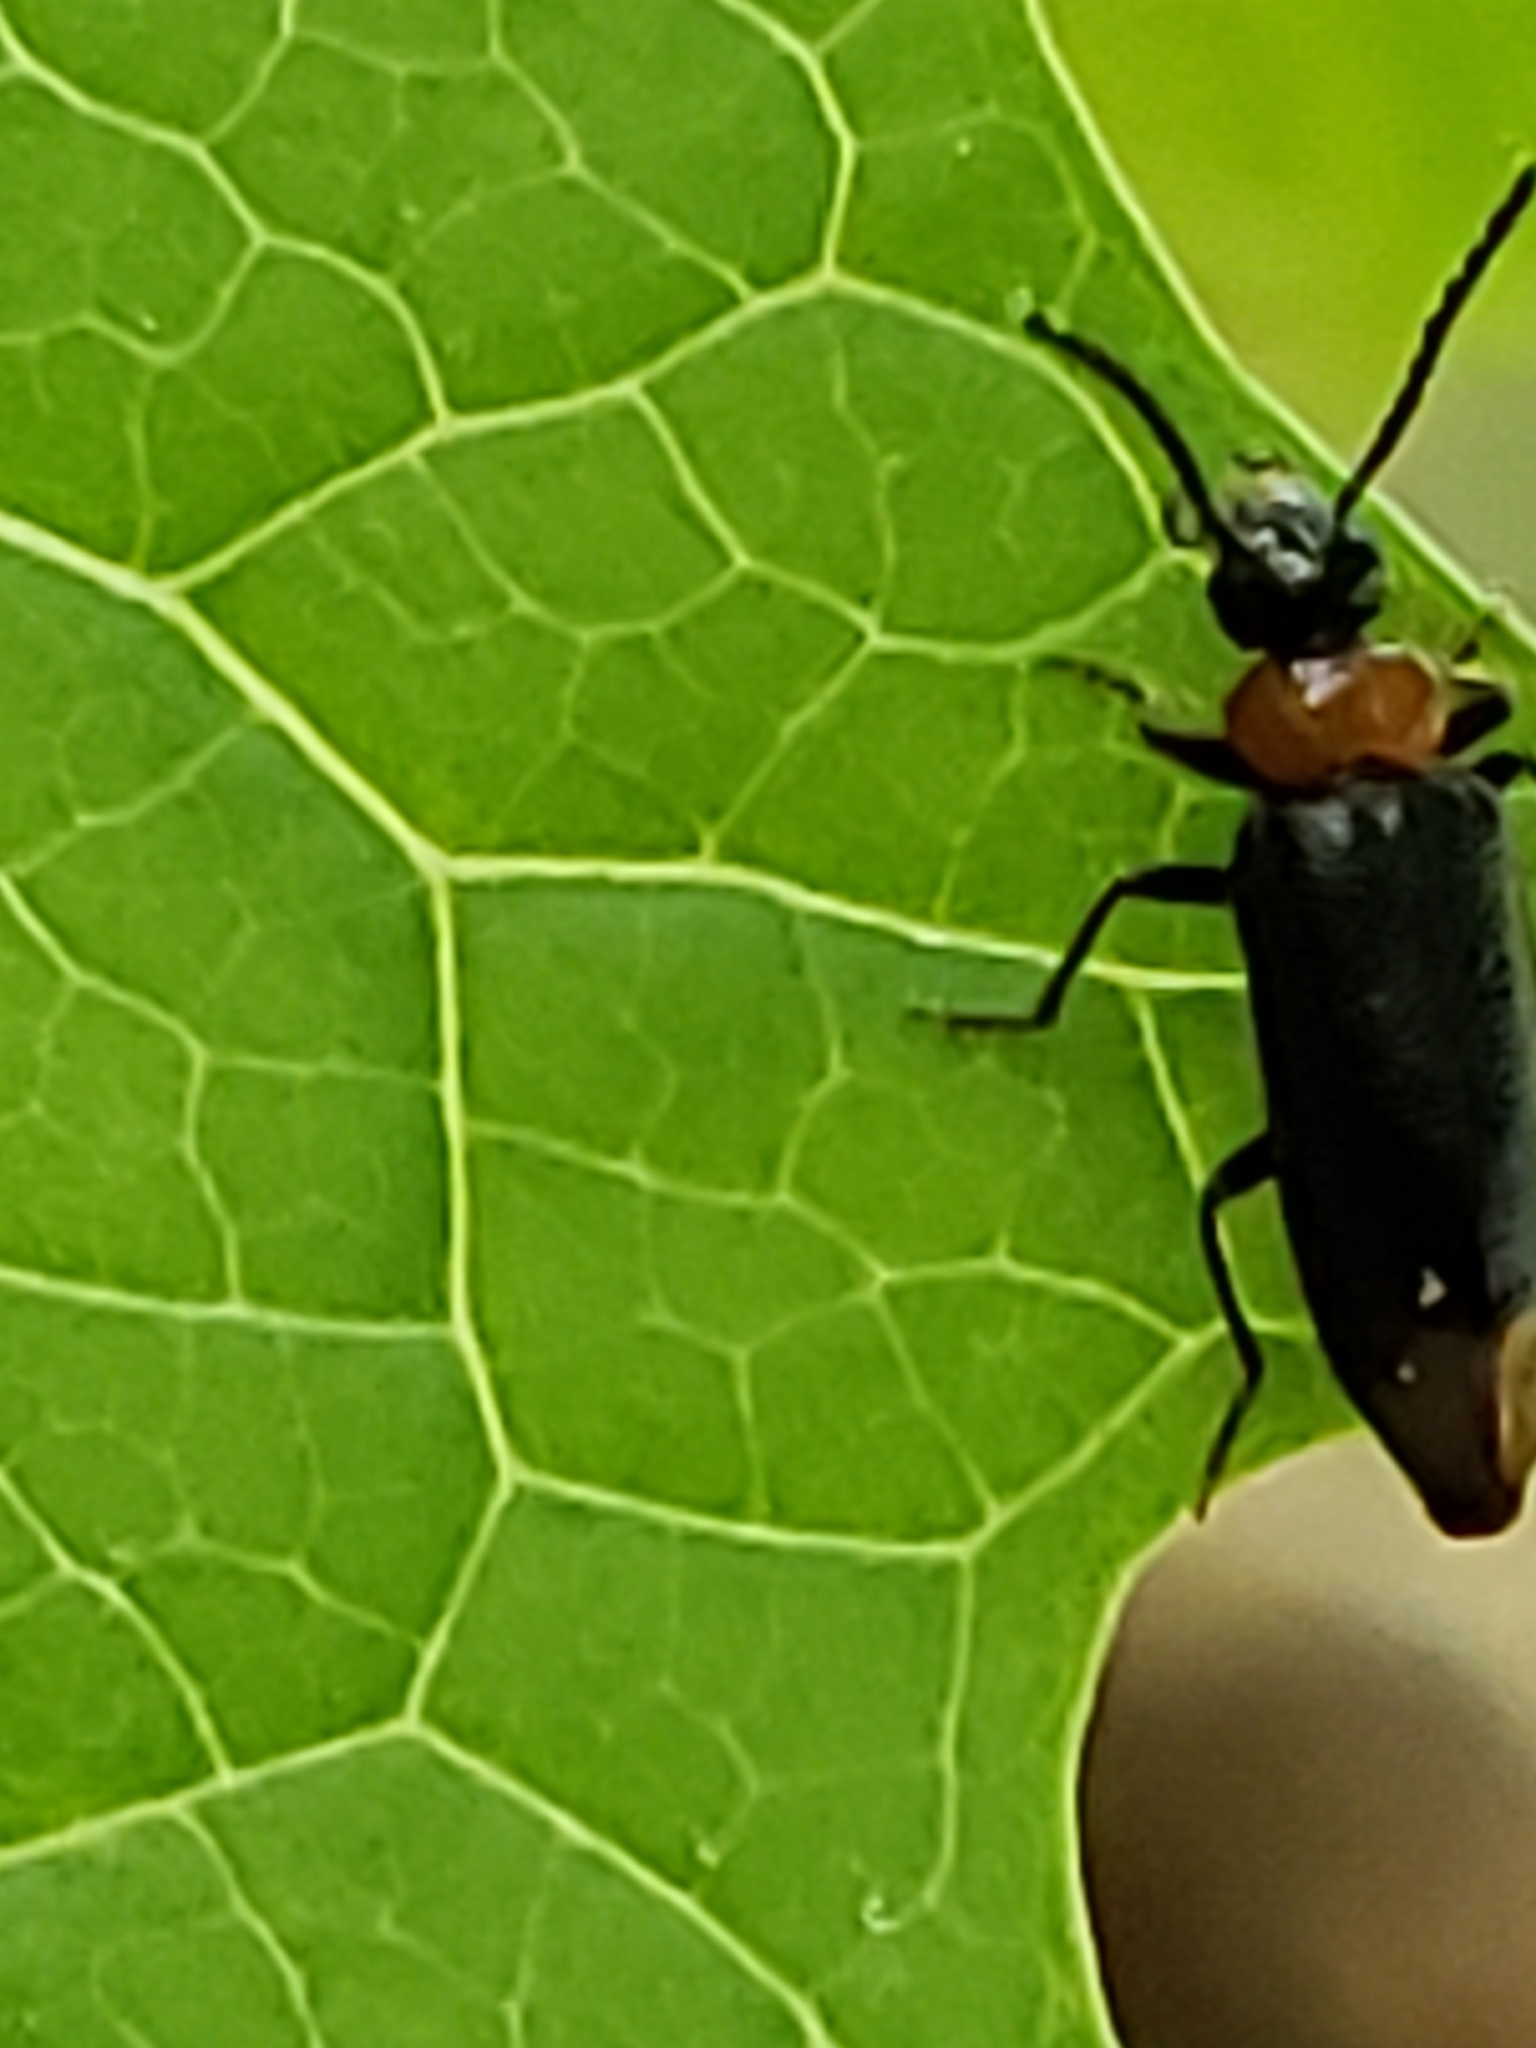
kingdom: Animalia
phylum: Arthropoda
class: Insecta
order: Coleoptera
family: Pyrochroidae
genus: Pedilus
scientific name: Pedilus terminalis
